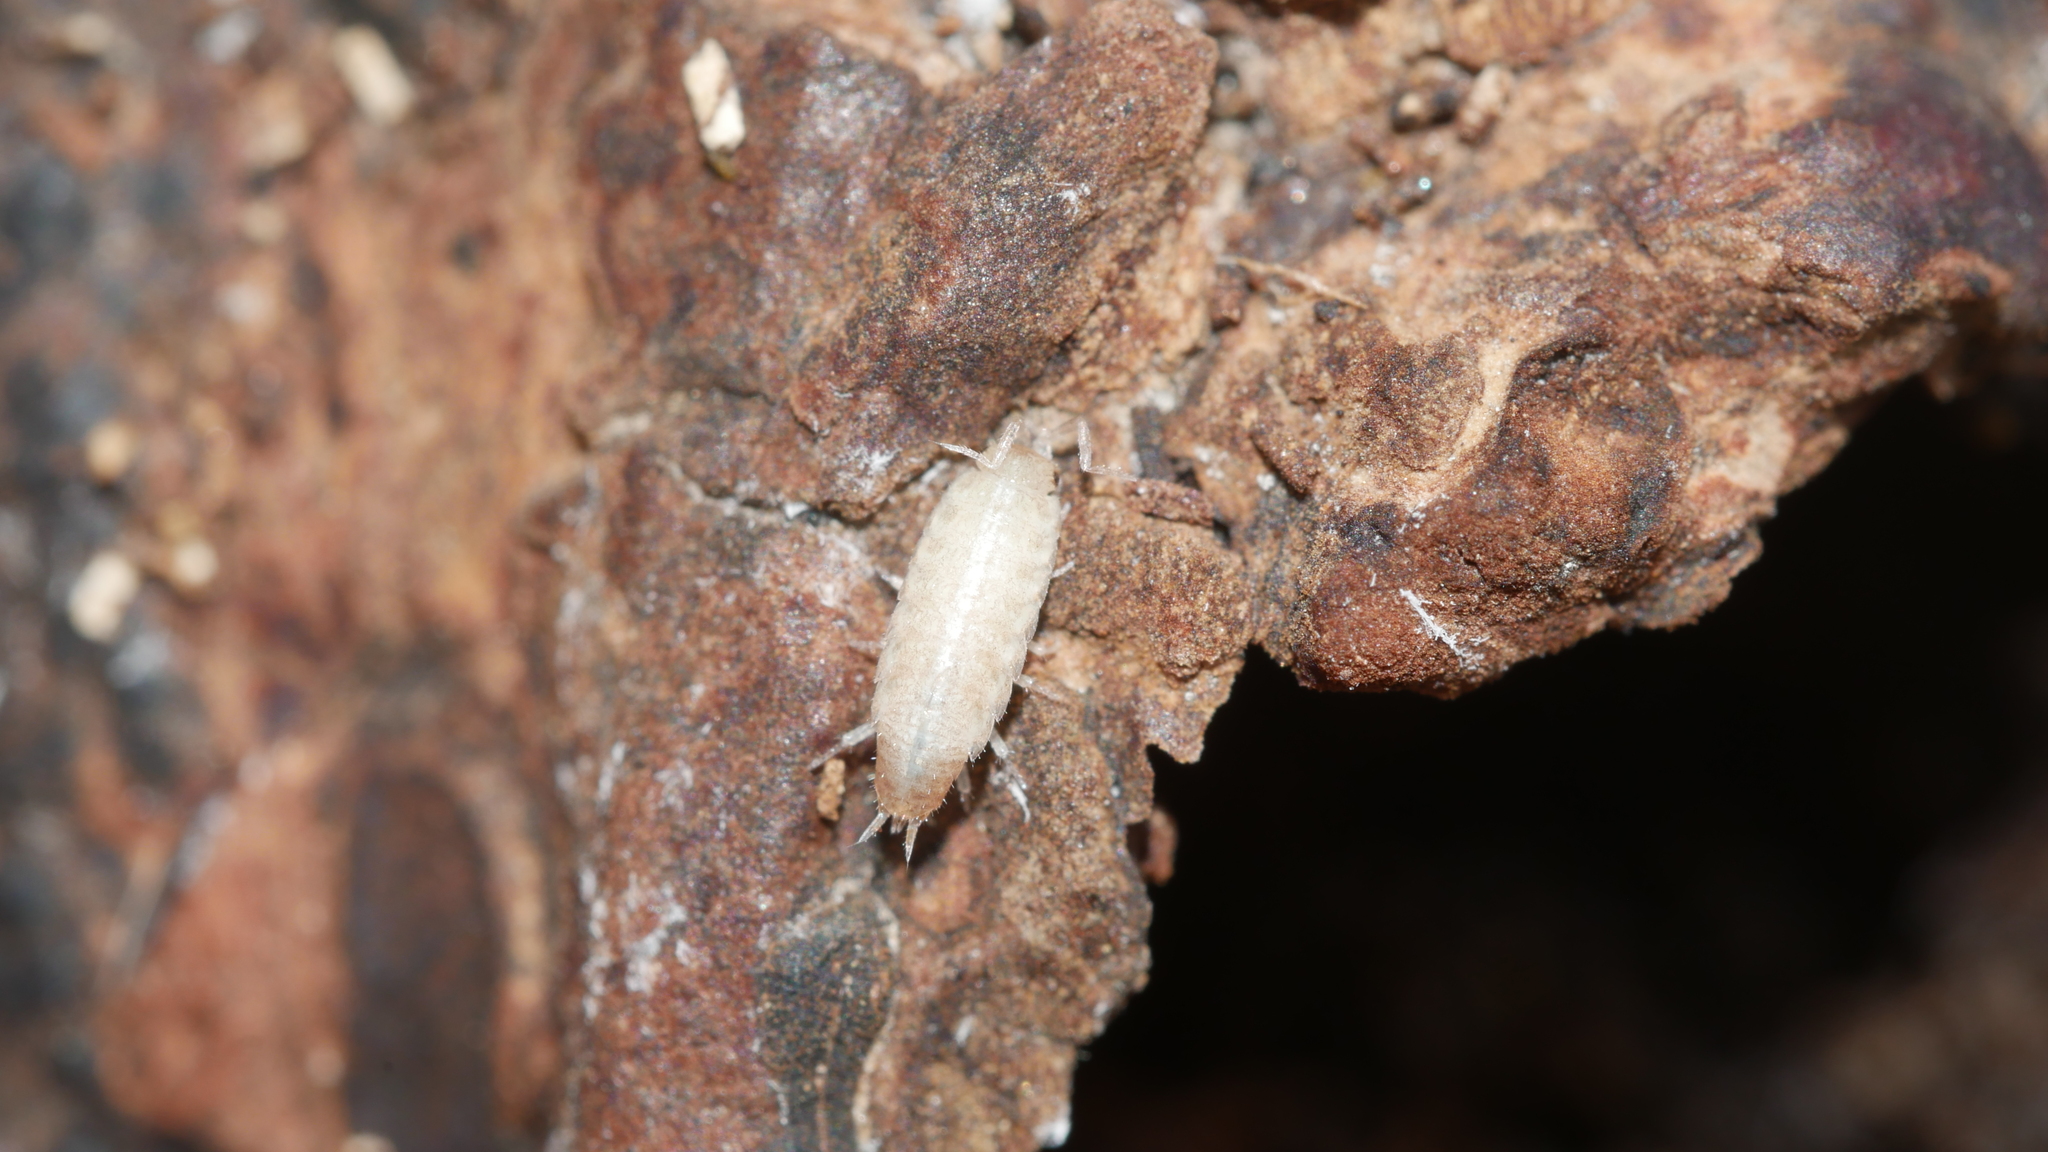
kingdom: Animalia
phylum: Arthropoda
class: Malacostraca
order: Isopoda
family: Philosciidae
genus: Chaetophiloscia
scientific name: Chaetophiloscia sicula
